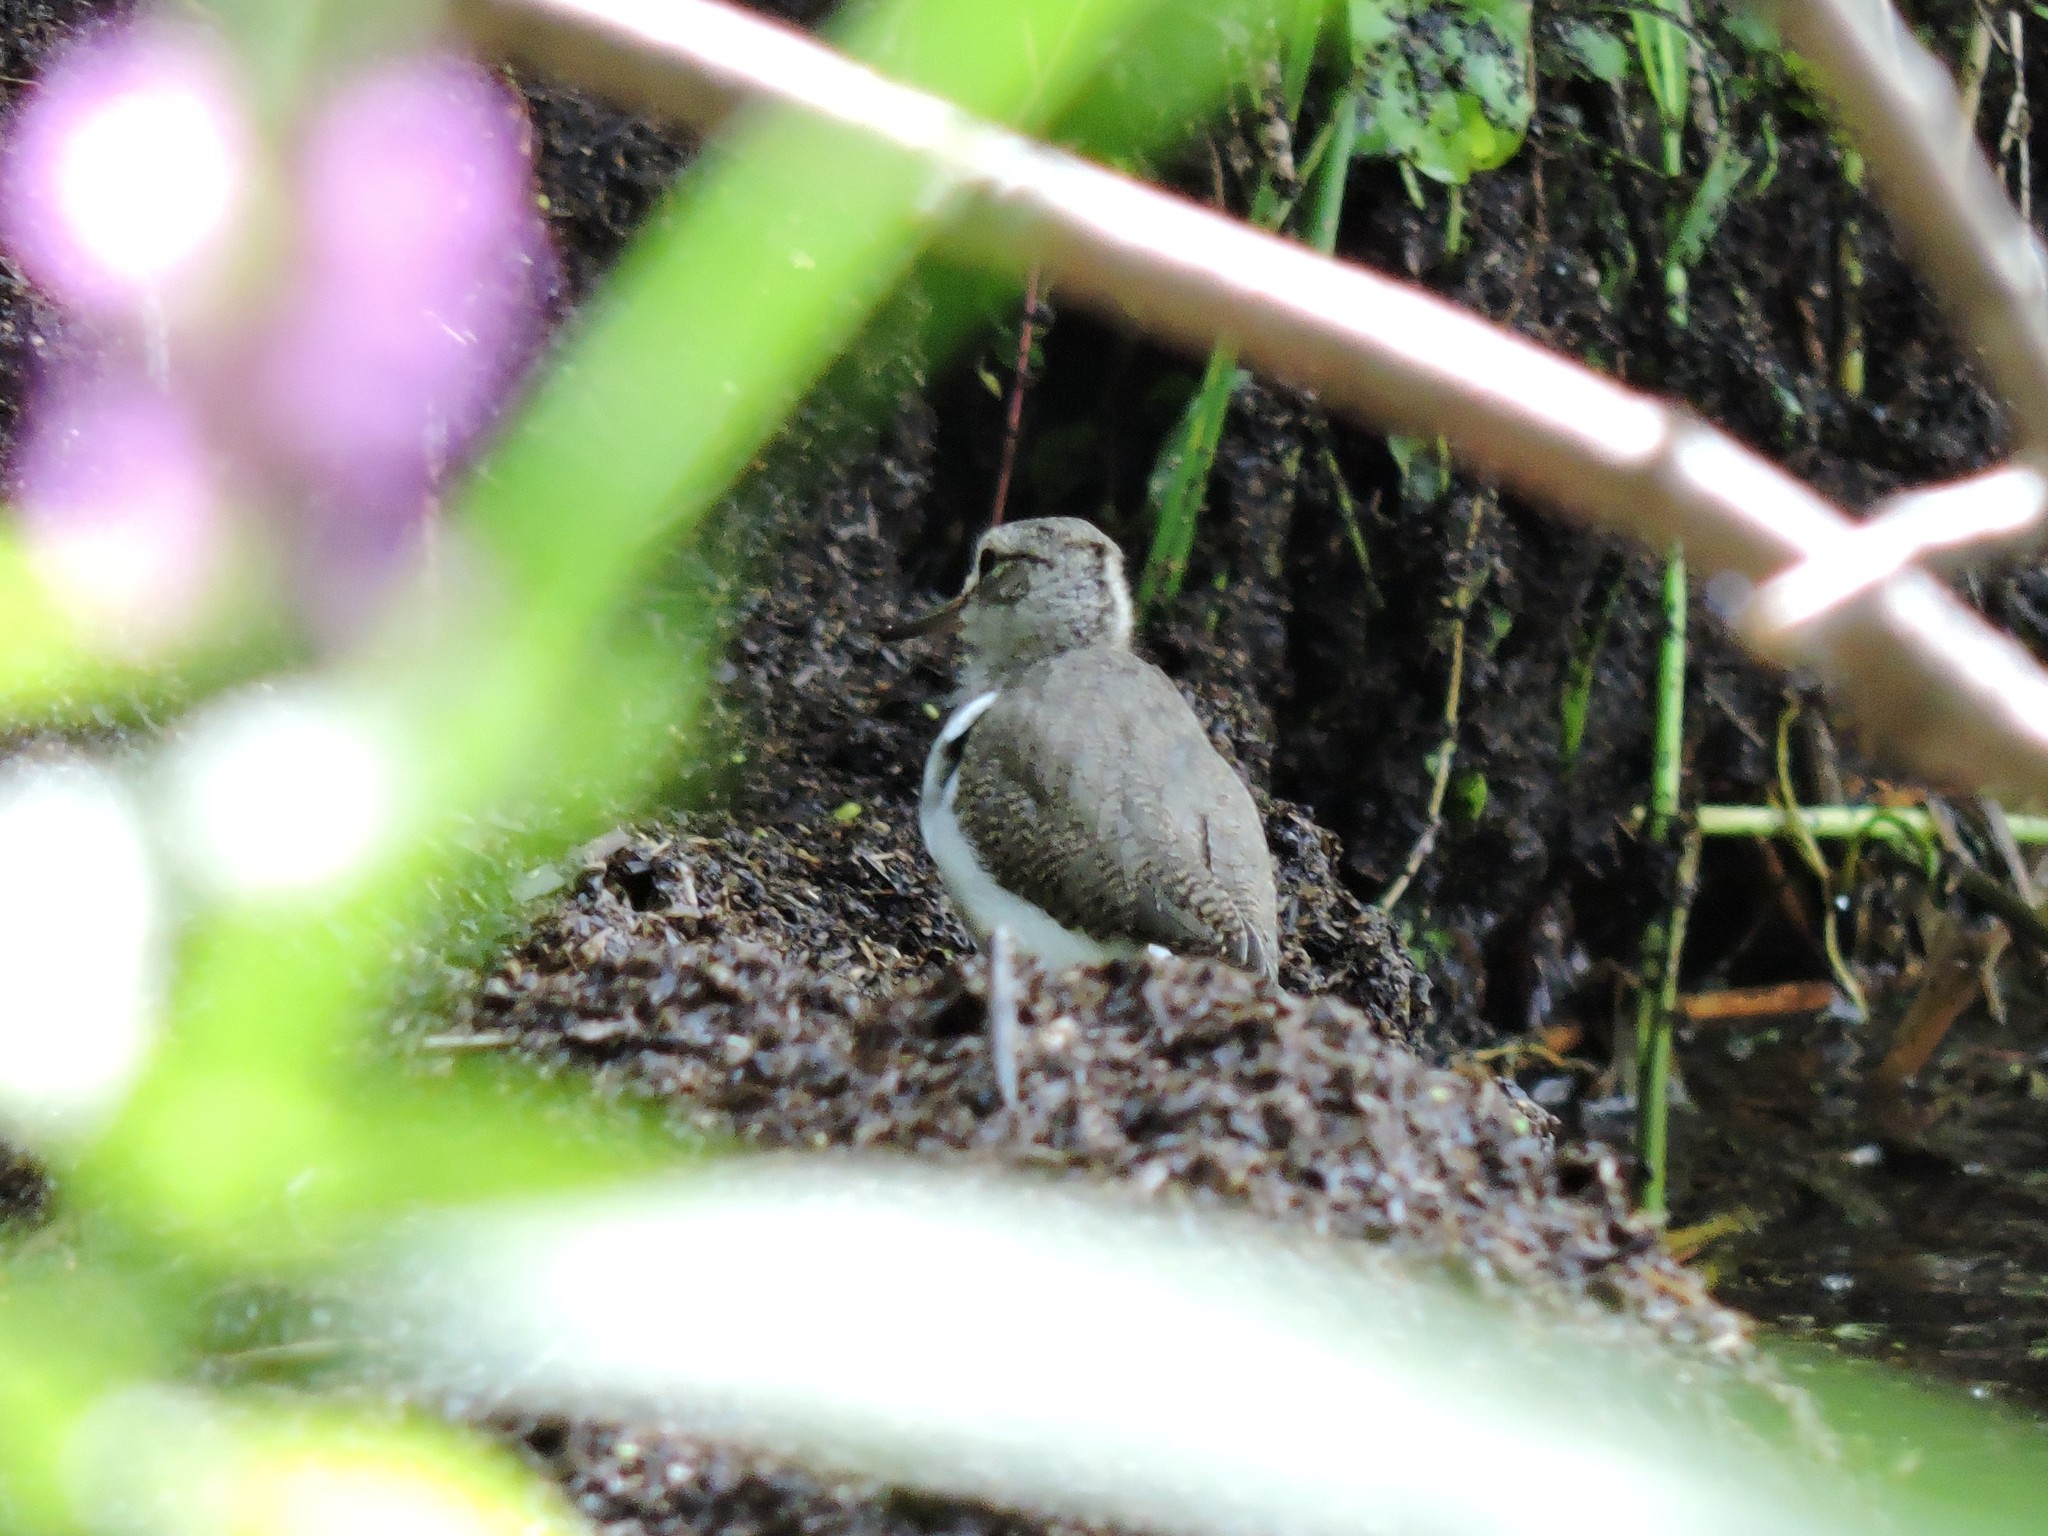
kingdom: Animalia
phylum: Chordata
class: Aves
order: Charadriiformes
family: Scolopacidae
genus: Actitis
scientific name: Actitis hypoleucos
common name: Common sandpiper
